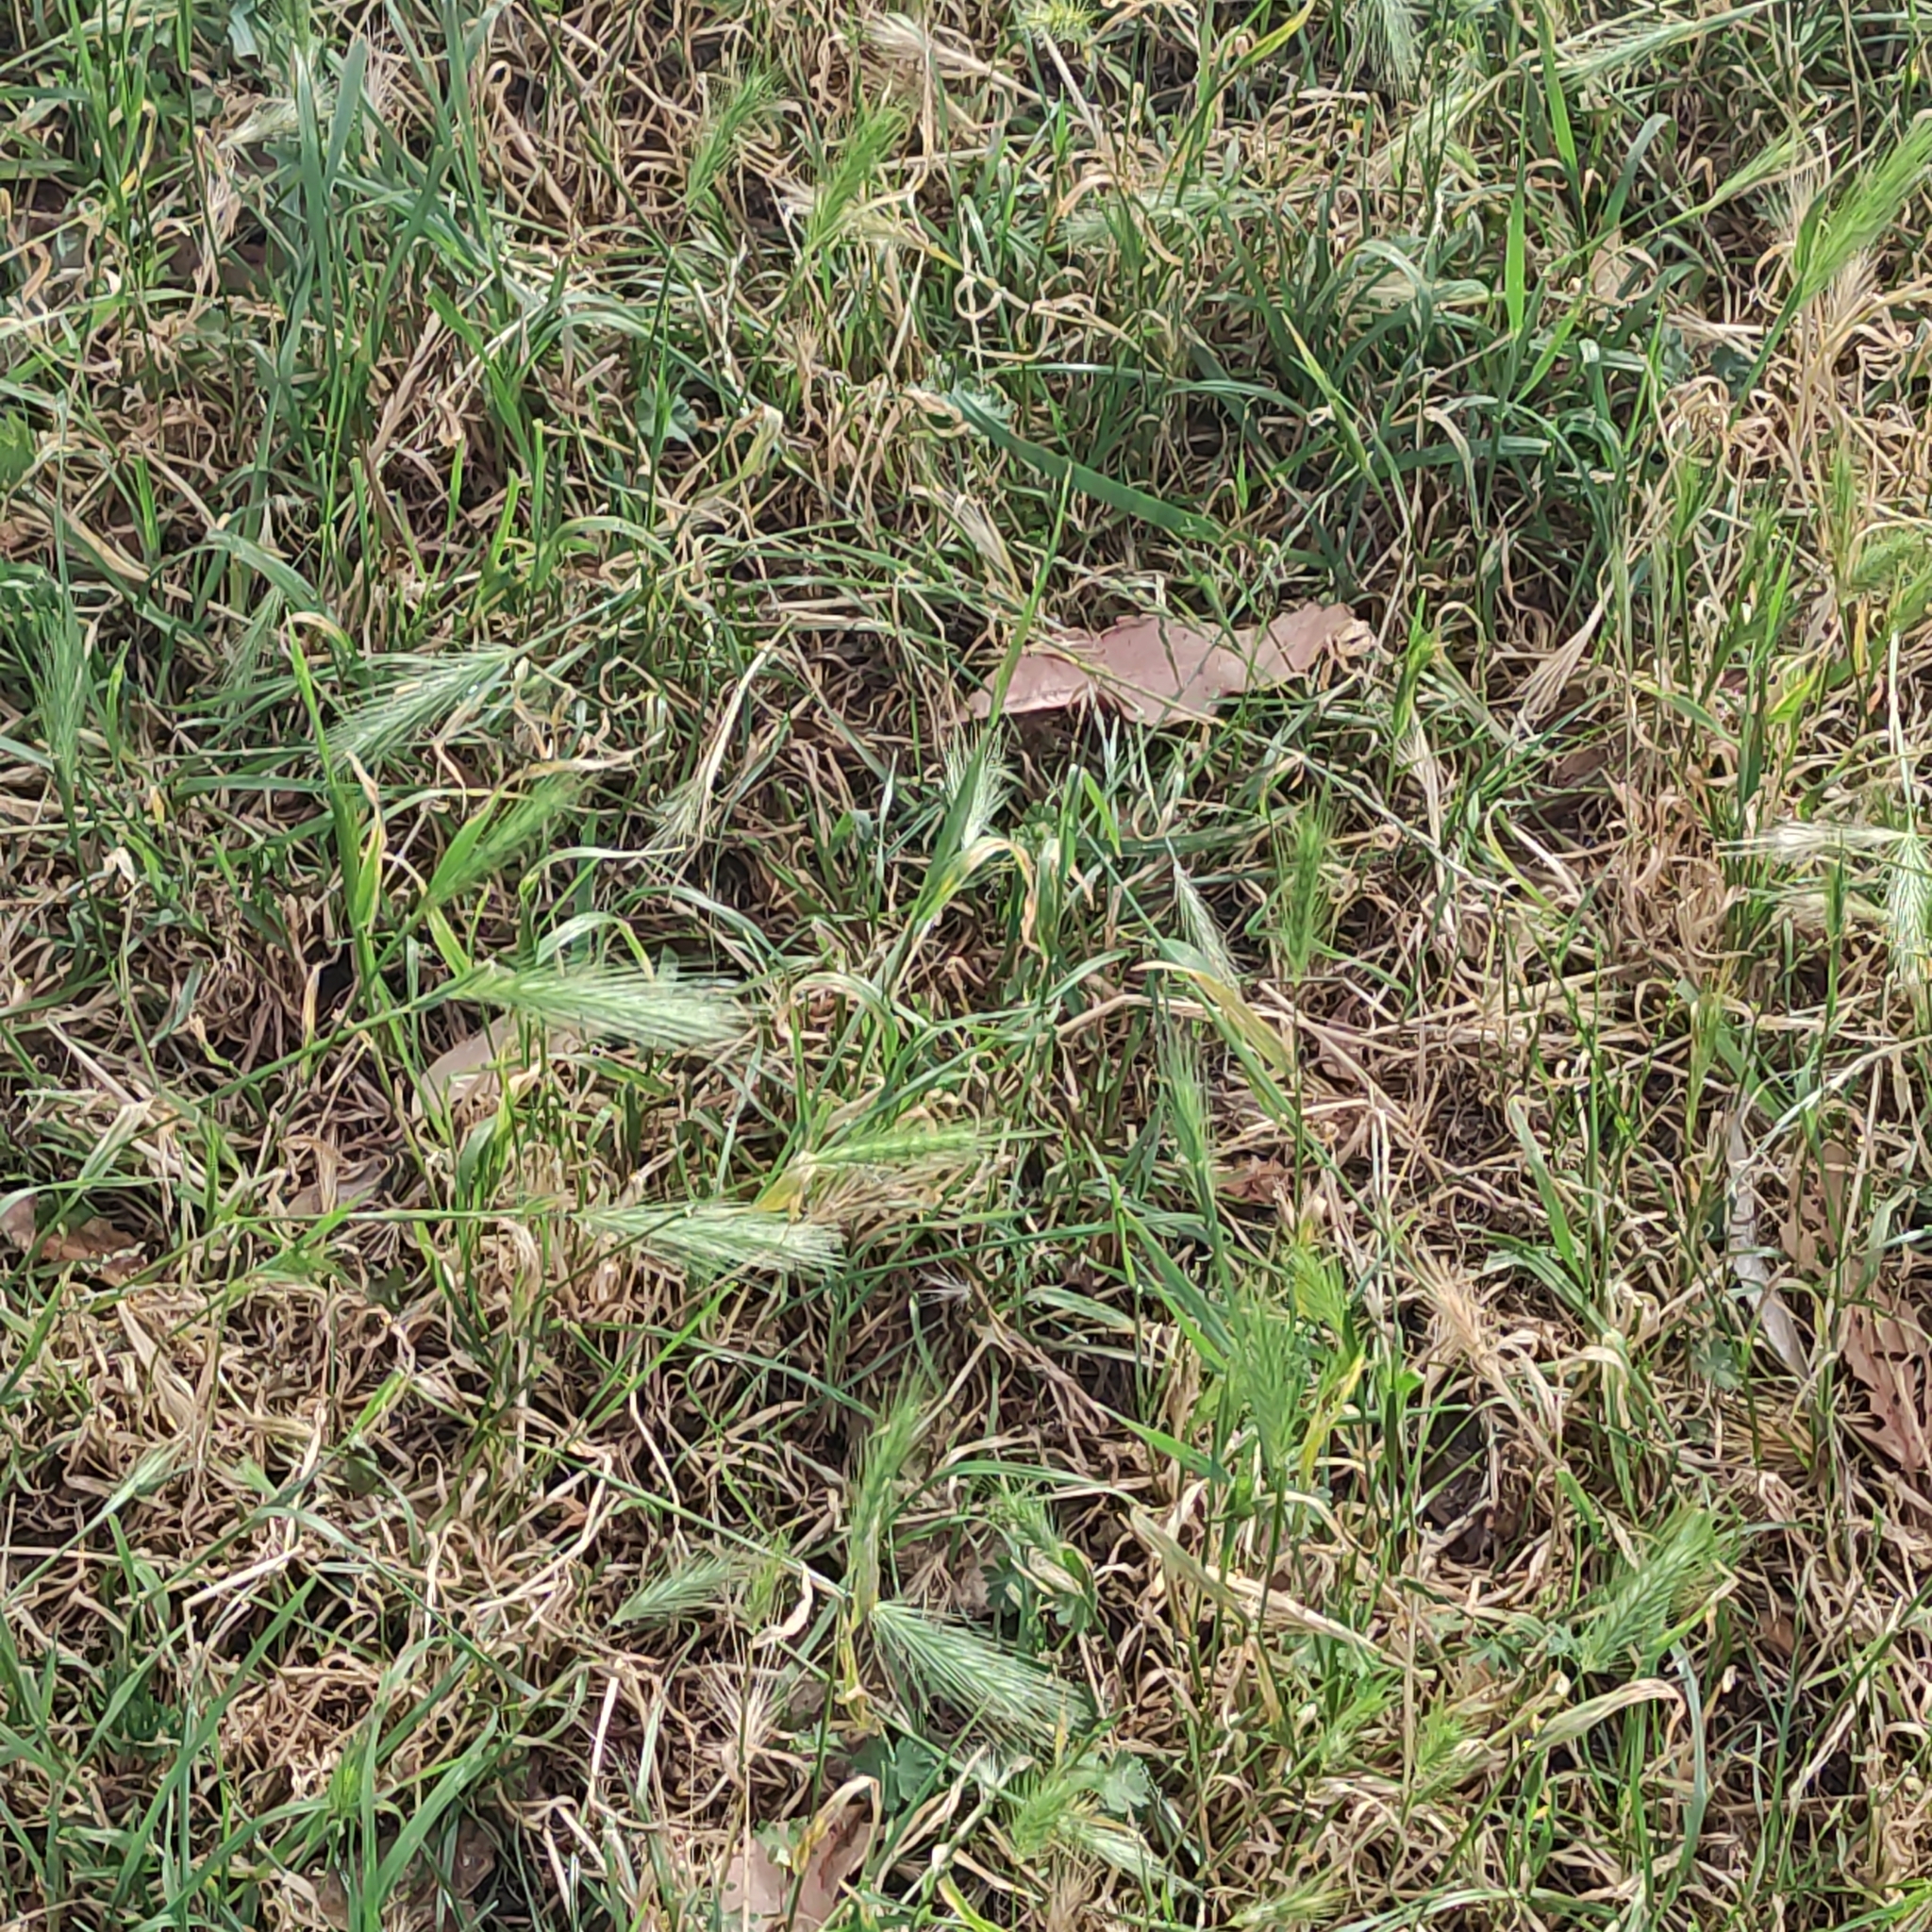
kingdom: Plantae
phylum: Tracheophyta
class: Liliopsida
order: Poales
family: Poaceae
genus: Hordeum
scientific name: Hordeum murinum
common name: Wall barley
